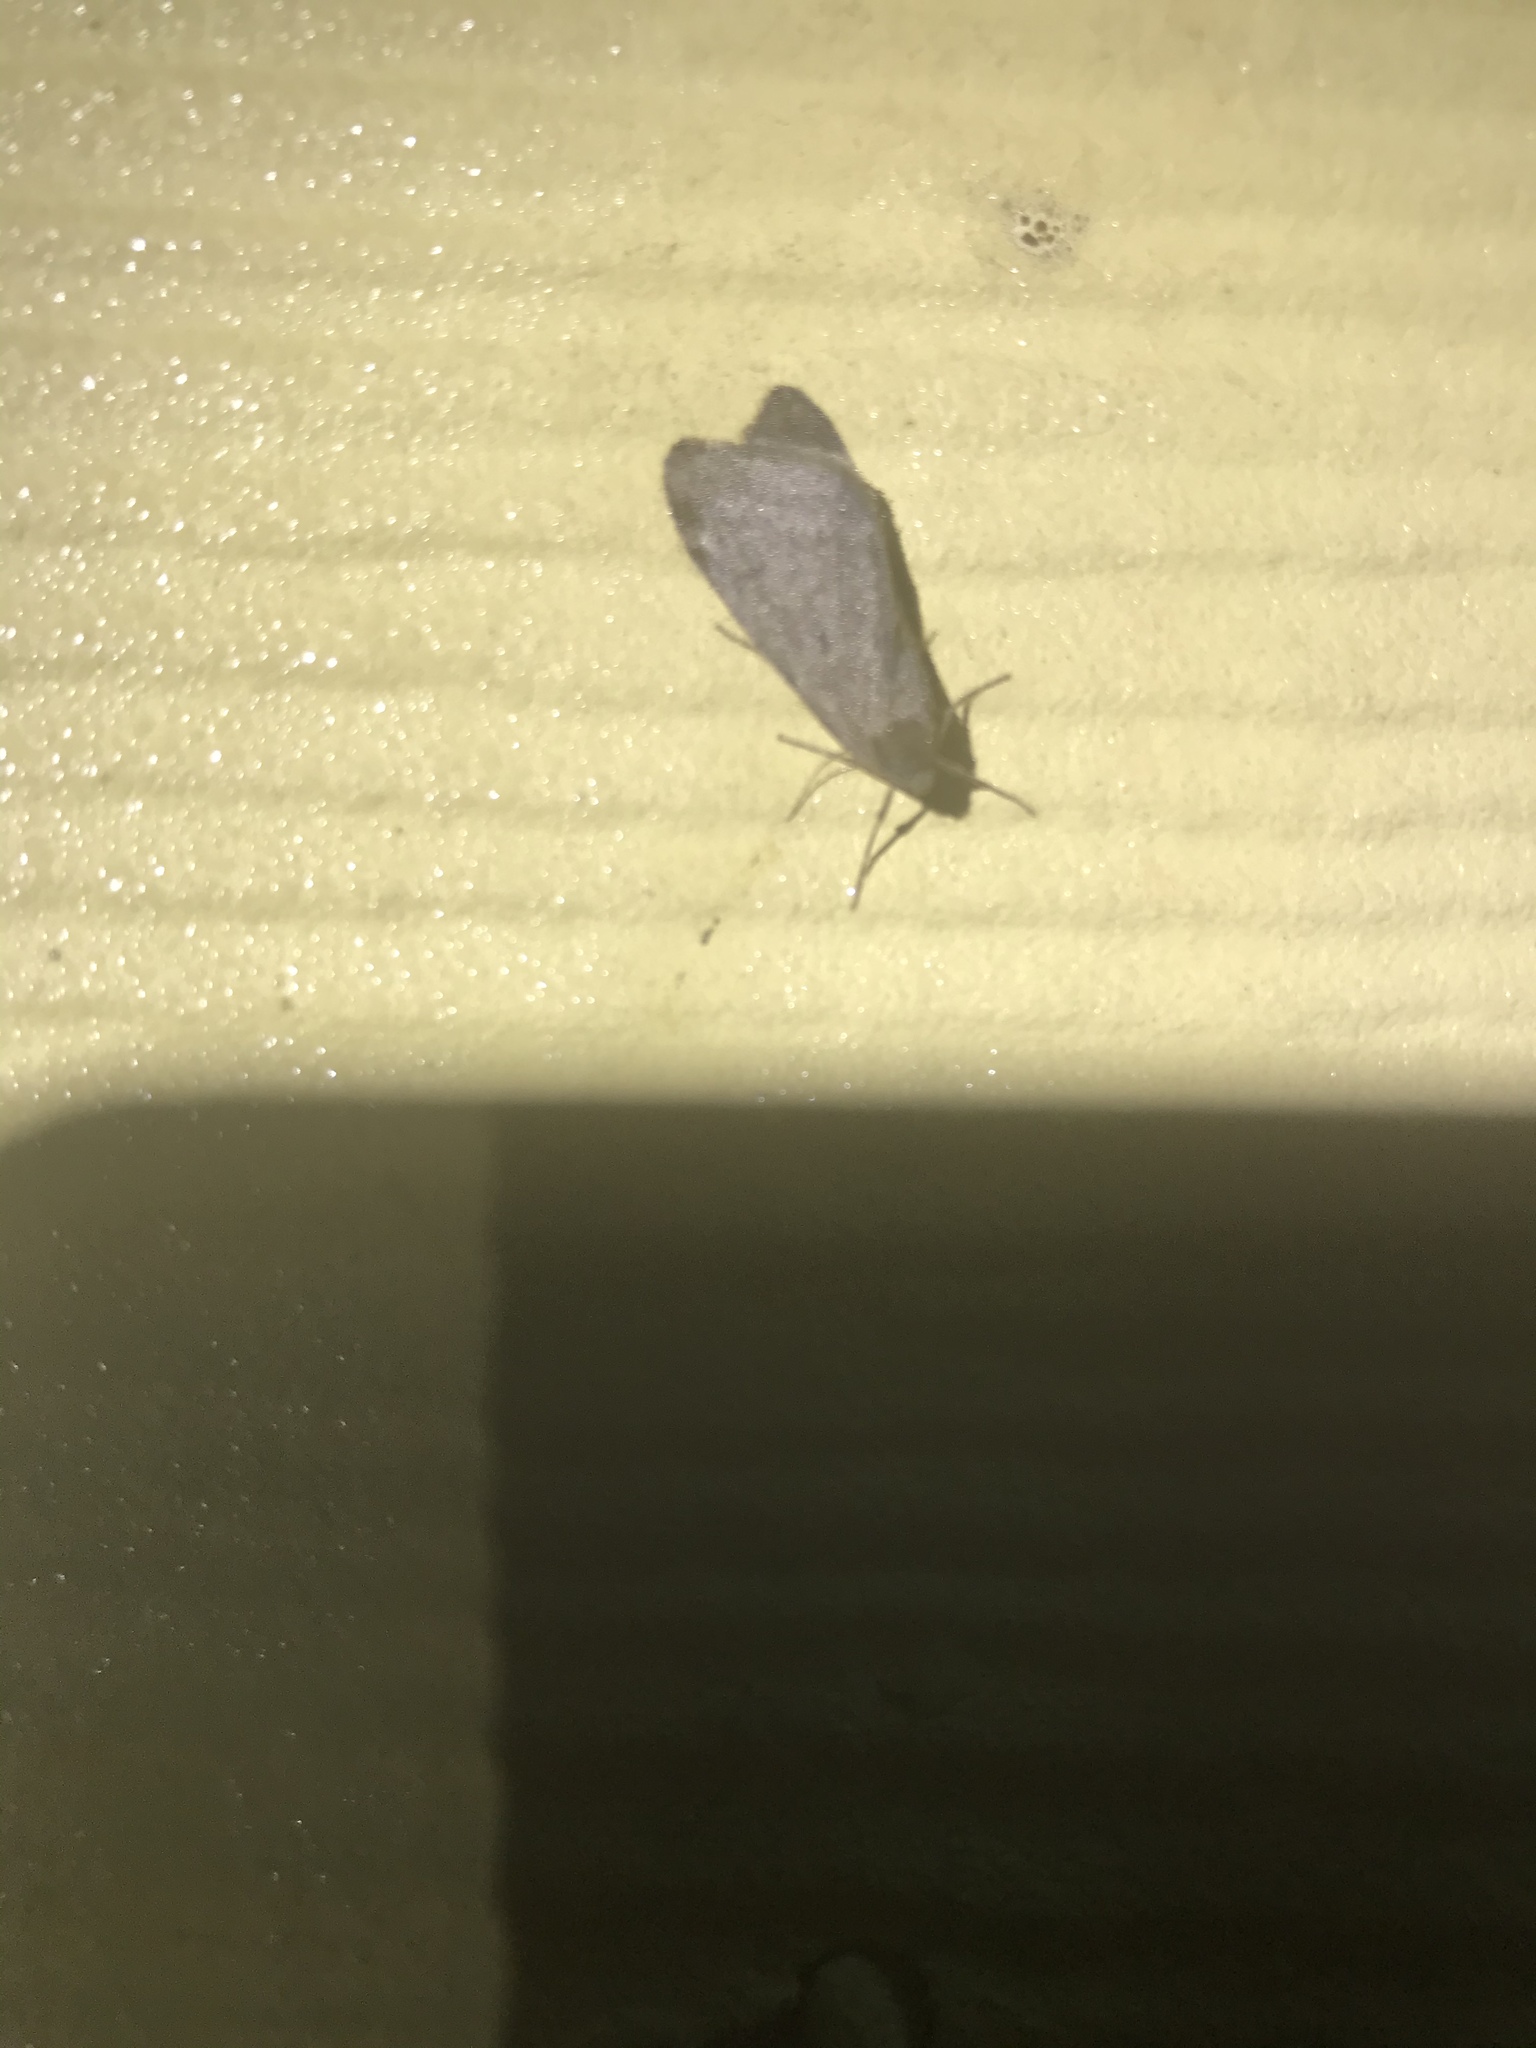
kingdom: Animalia
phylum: Arthropoda
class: Insecta
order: Lepidoptera
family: Geometridae
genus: Alsophila
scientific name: Alsophila pometaria
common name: Fall cankerworm
